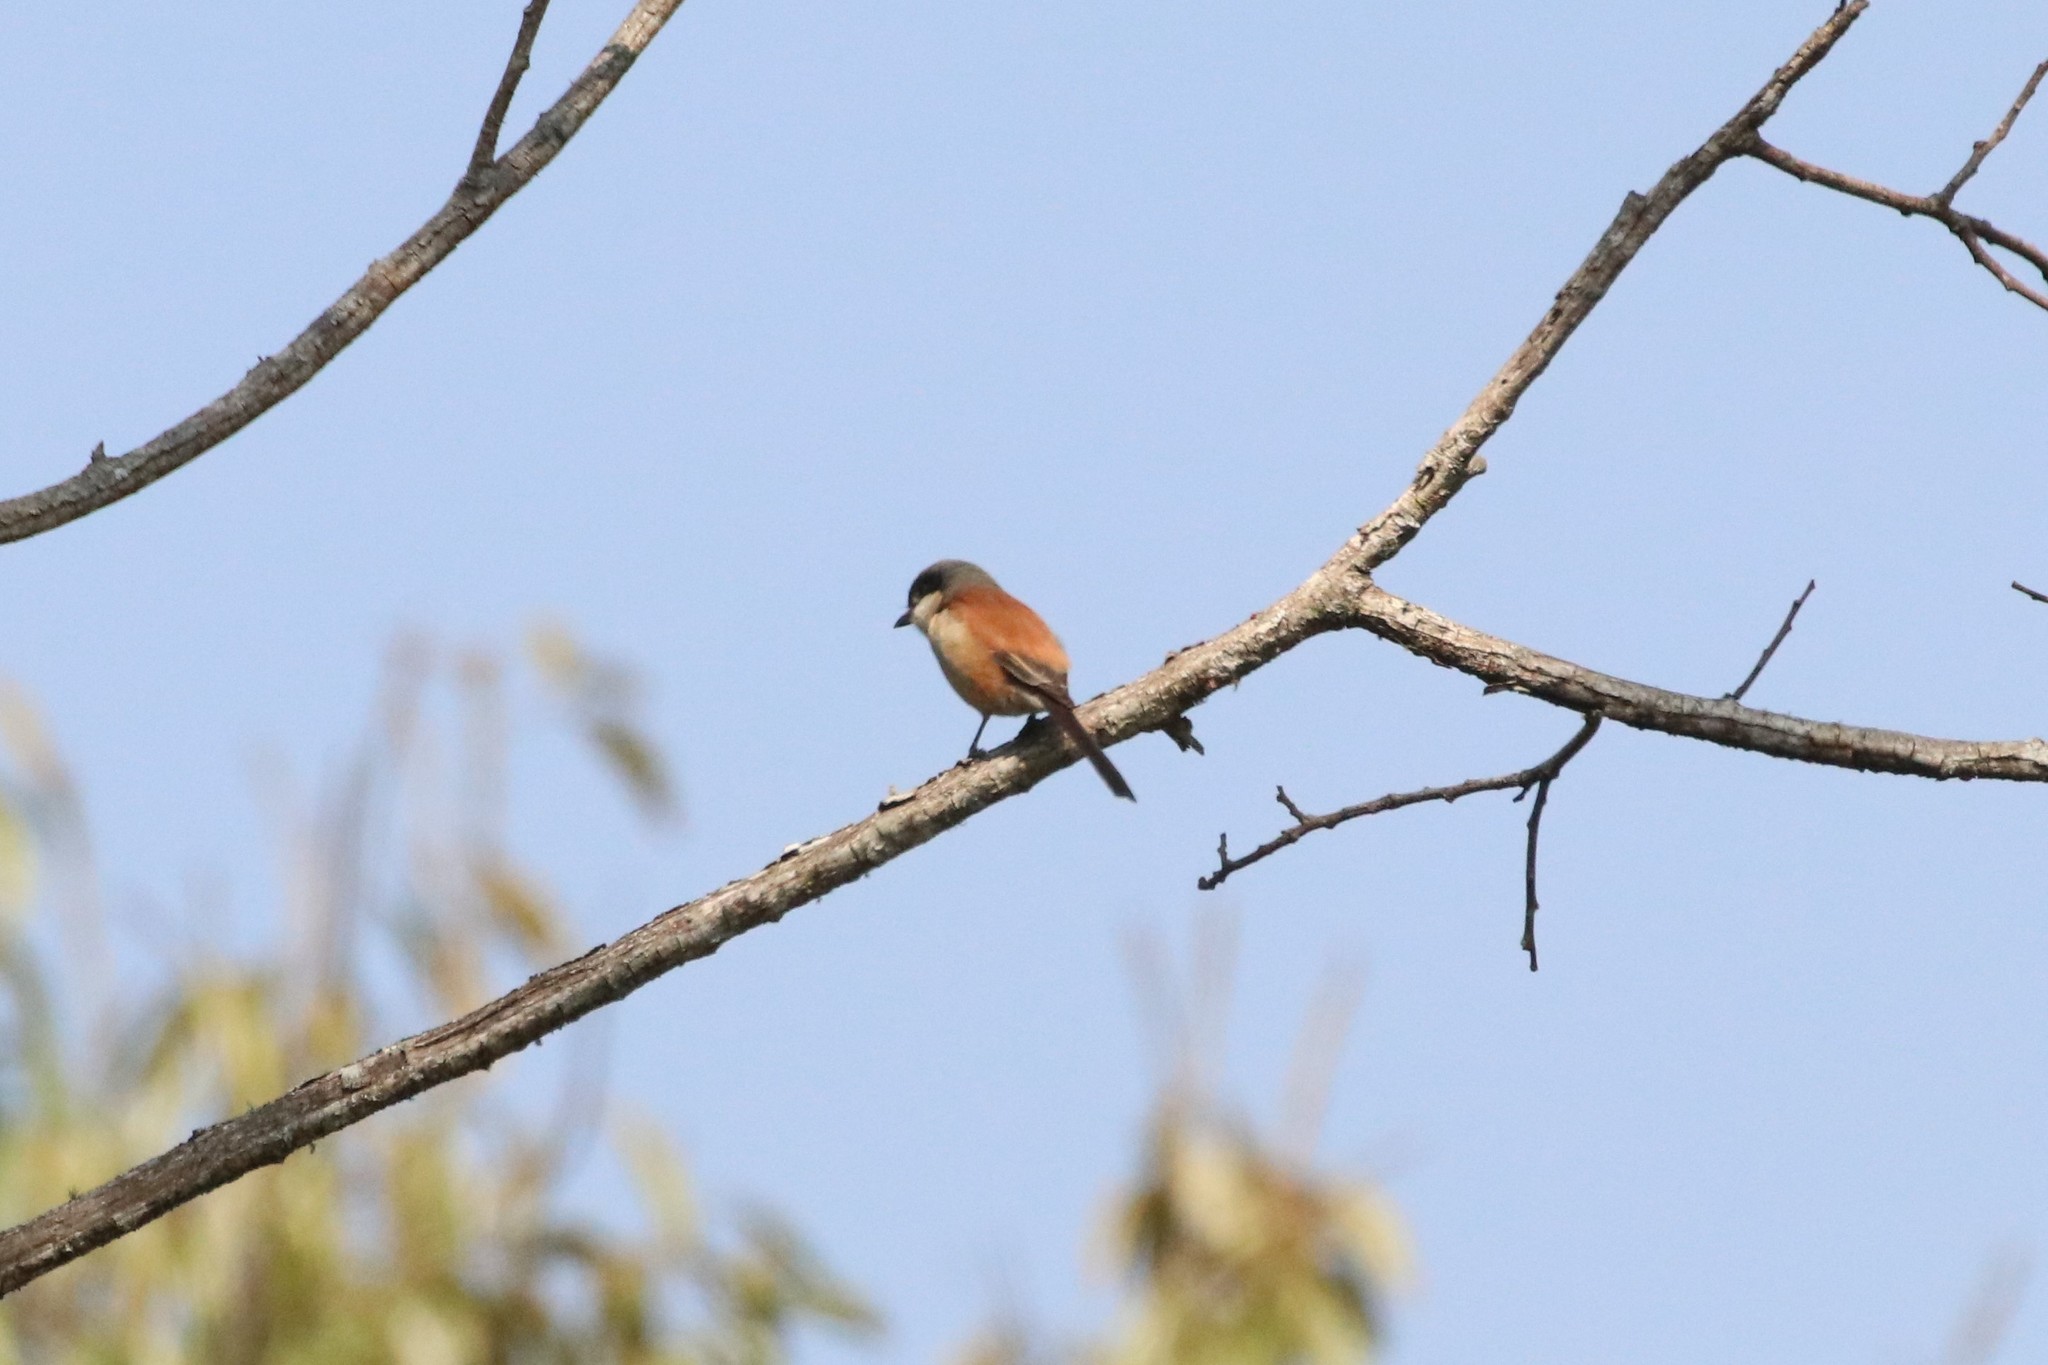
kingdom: Animalia
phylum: Chordata
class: Aves
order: Passeriformes
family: Laniidae
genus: Lanius
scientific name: Lanius collurioides
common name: Burmese shrike
